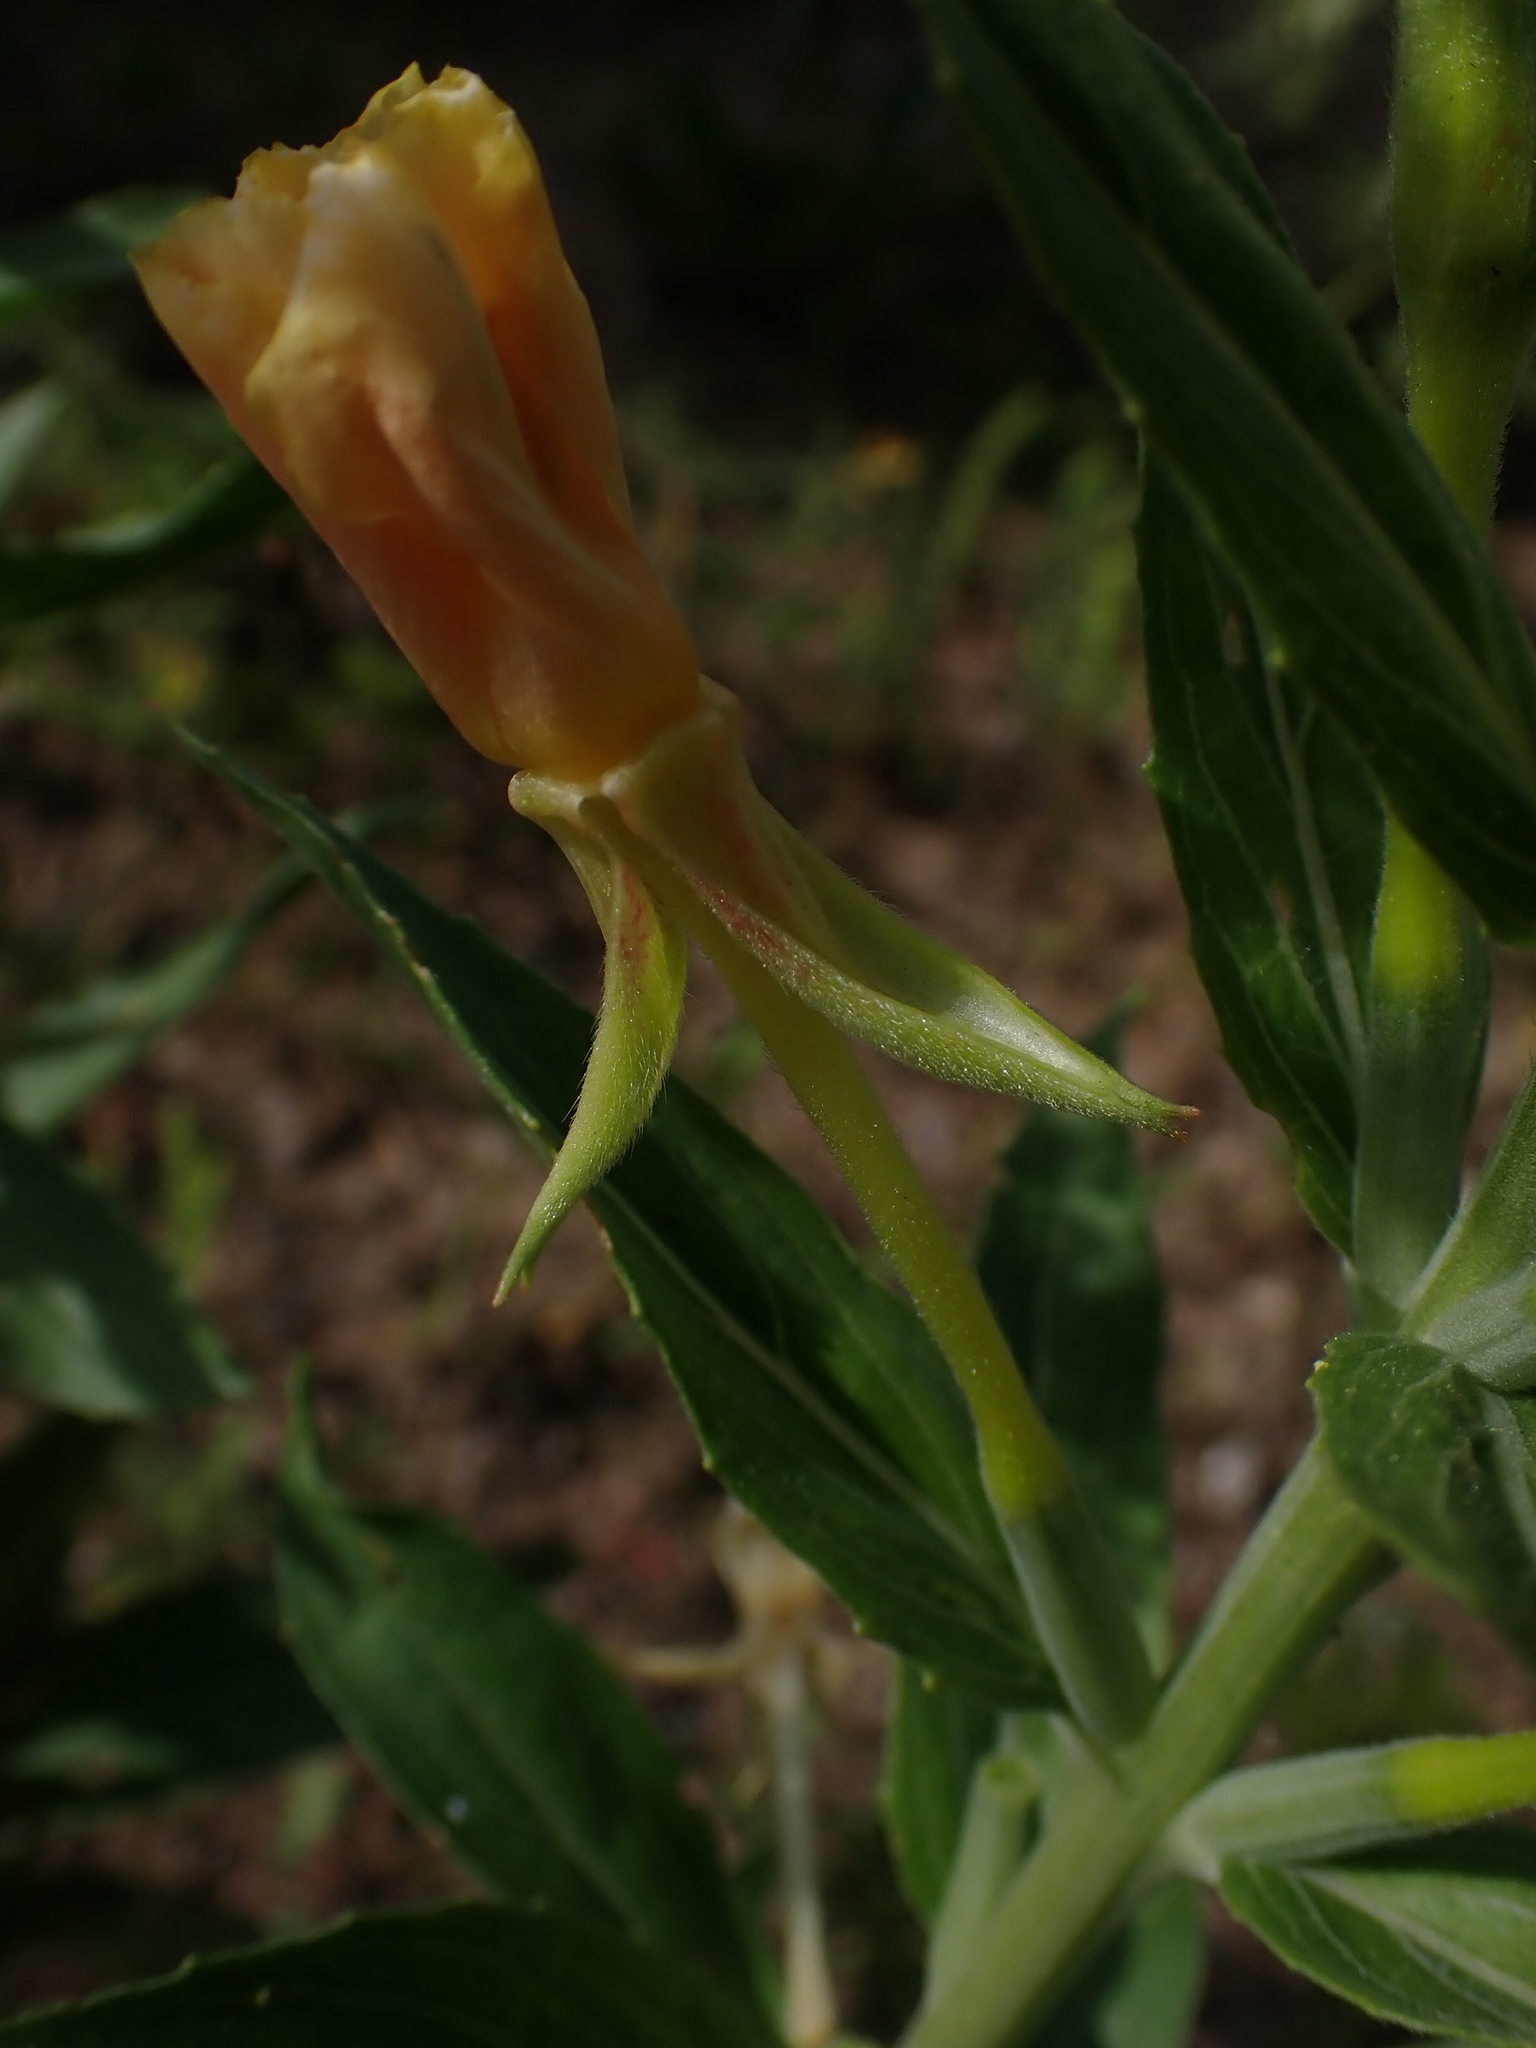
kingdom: Plantae
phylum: Tracheophyta
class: Magnoliopsida
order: Myrtales
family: Onagraceae
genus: Oenothera
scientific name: Oenothera biennis
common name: Common evening-primrose
